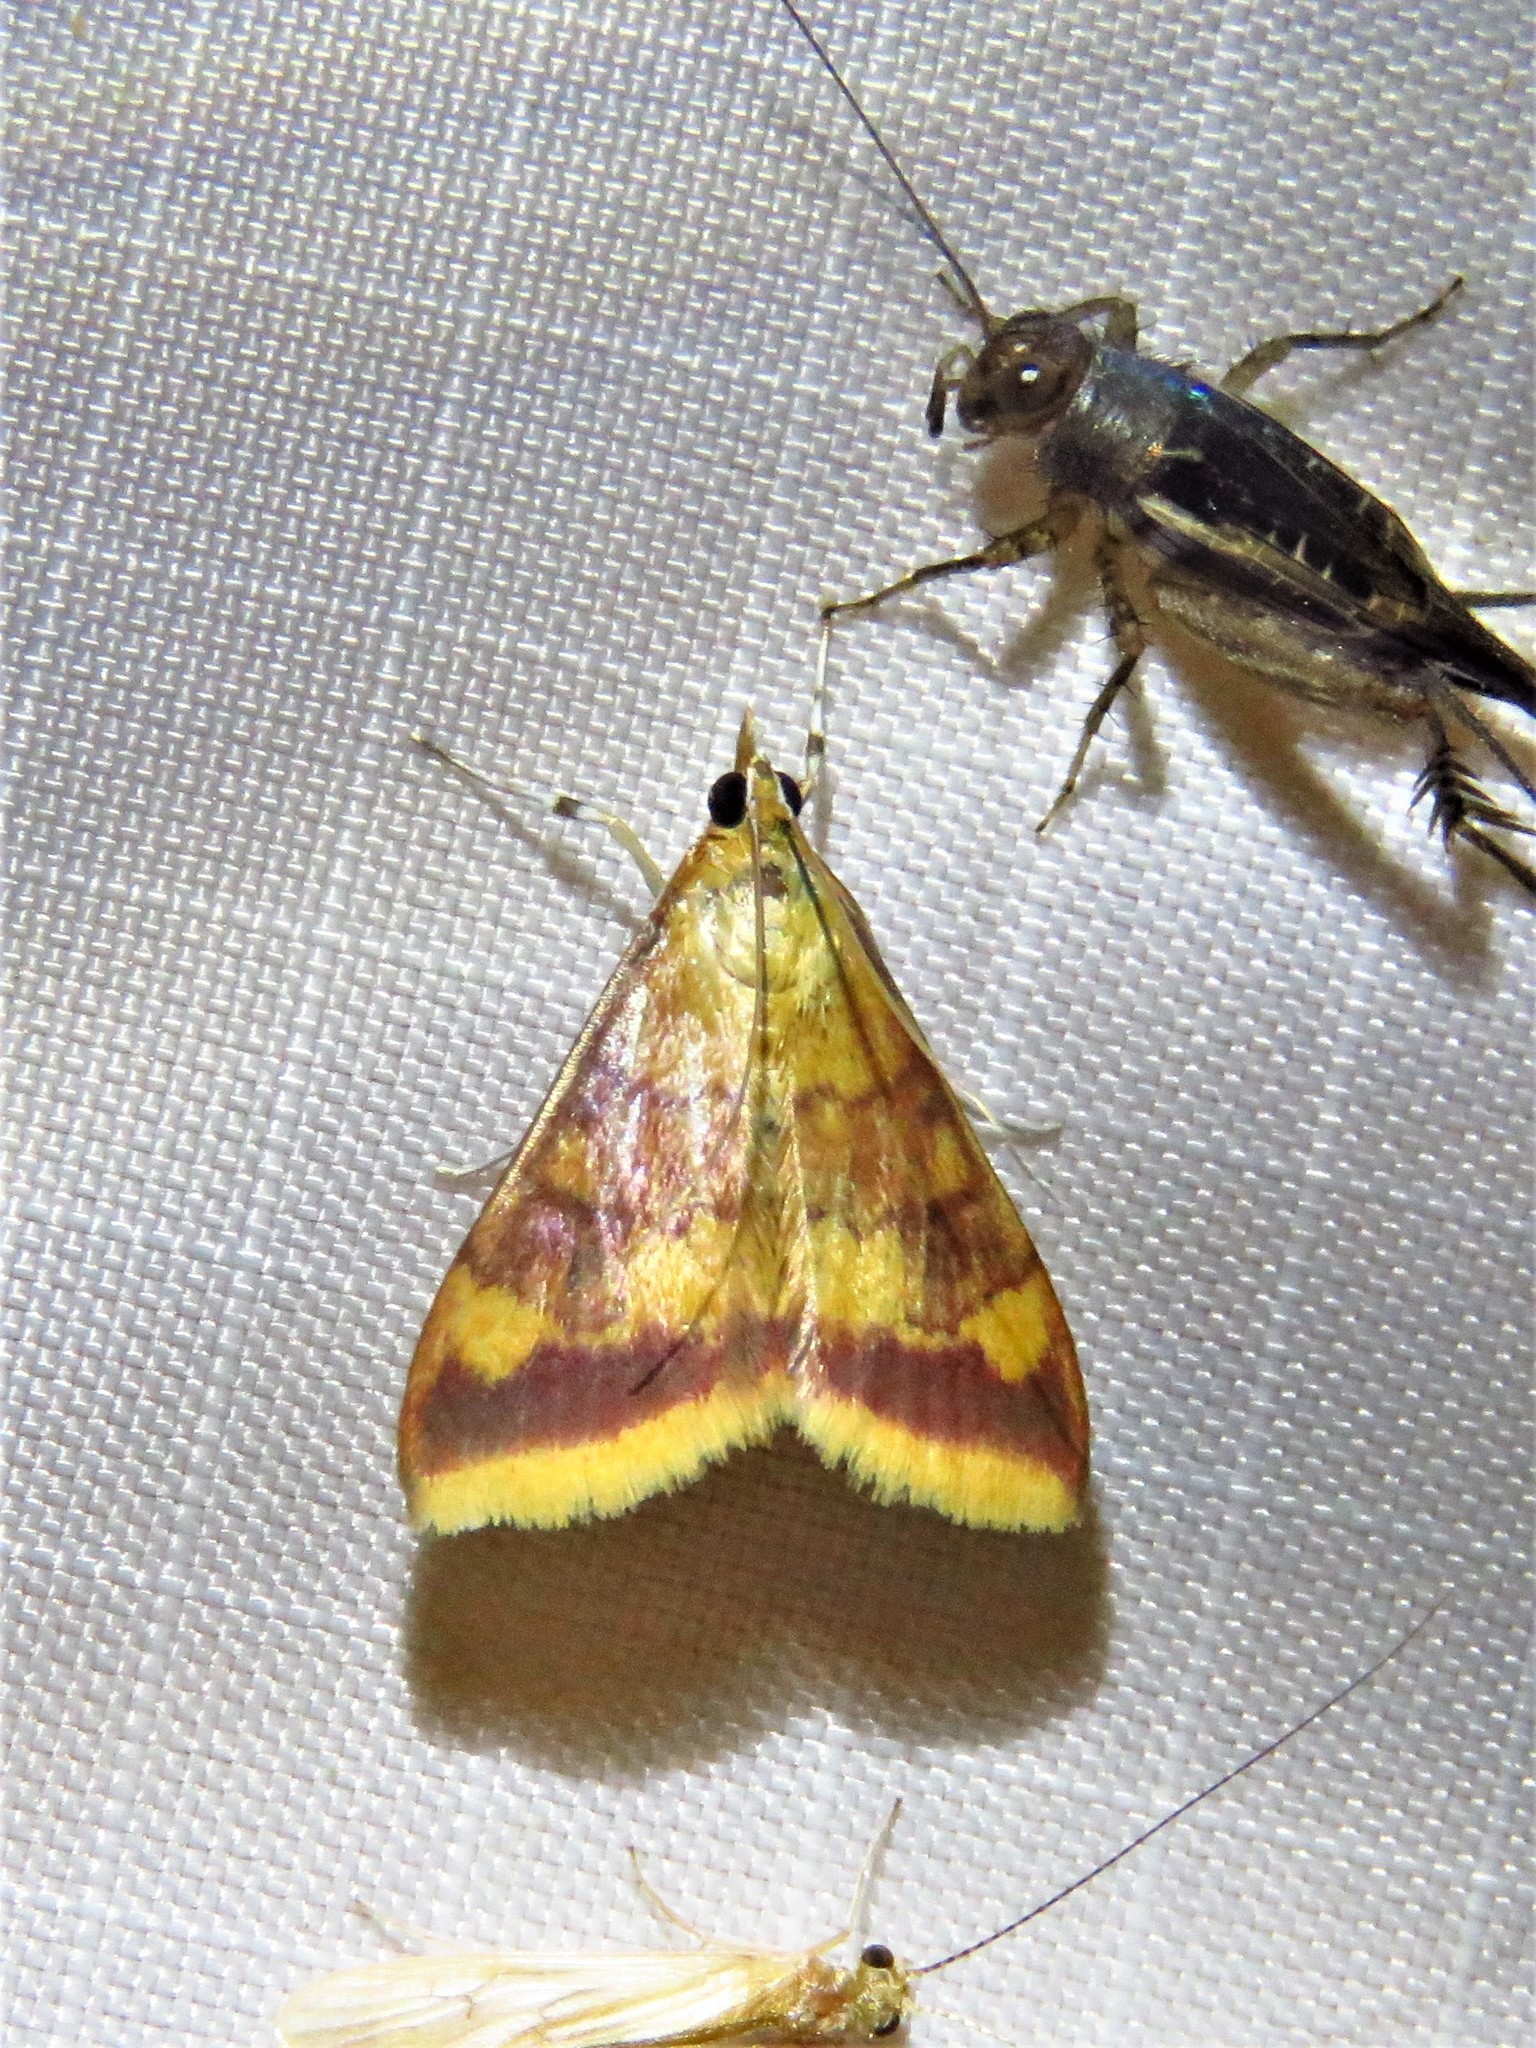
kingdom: Animalia
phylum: Arthropoda
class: Insecta
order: Lepidoptera
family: Crambidae
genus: Pyrausta
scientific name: Pyrausta onythesalis
